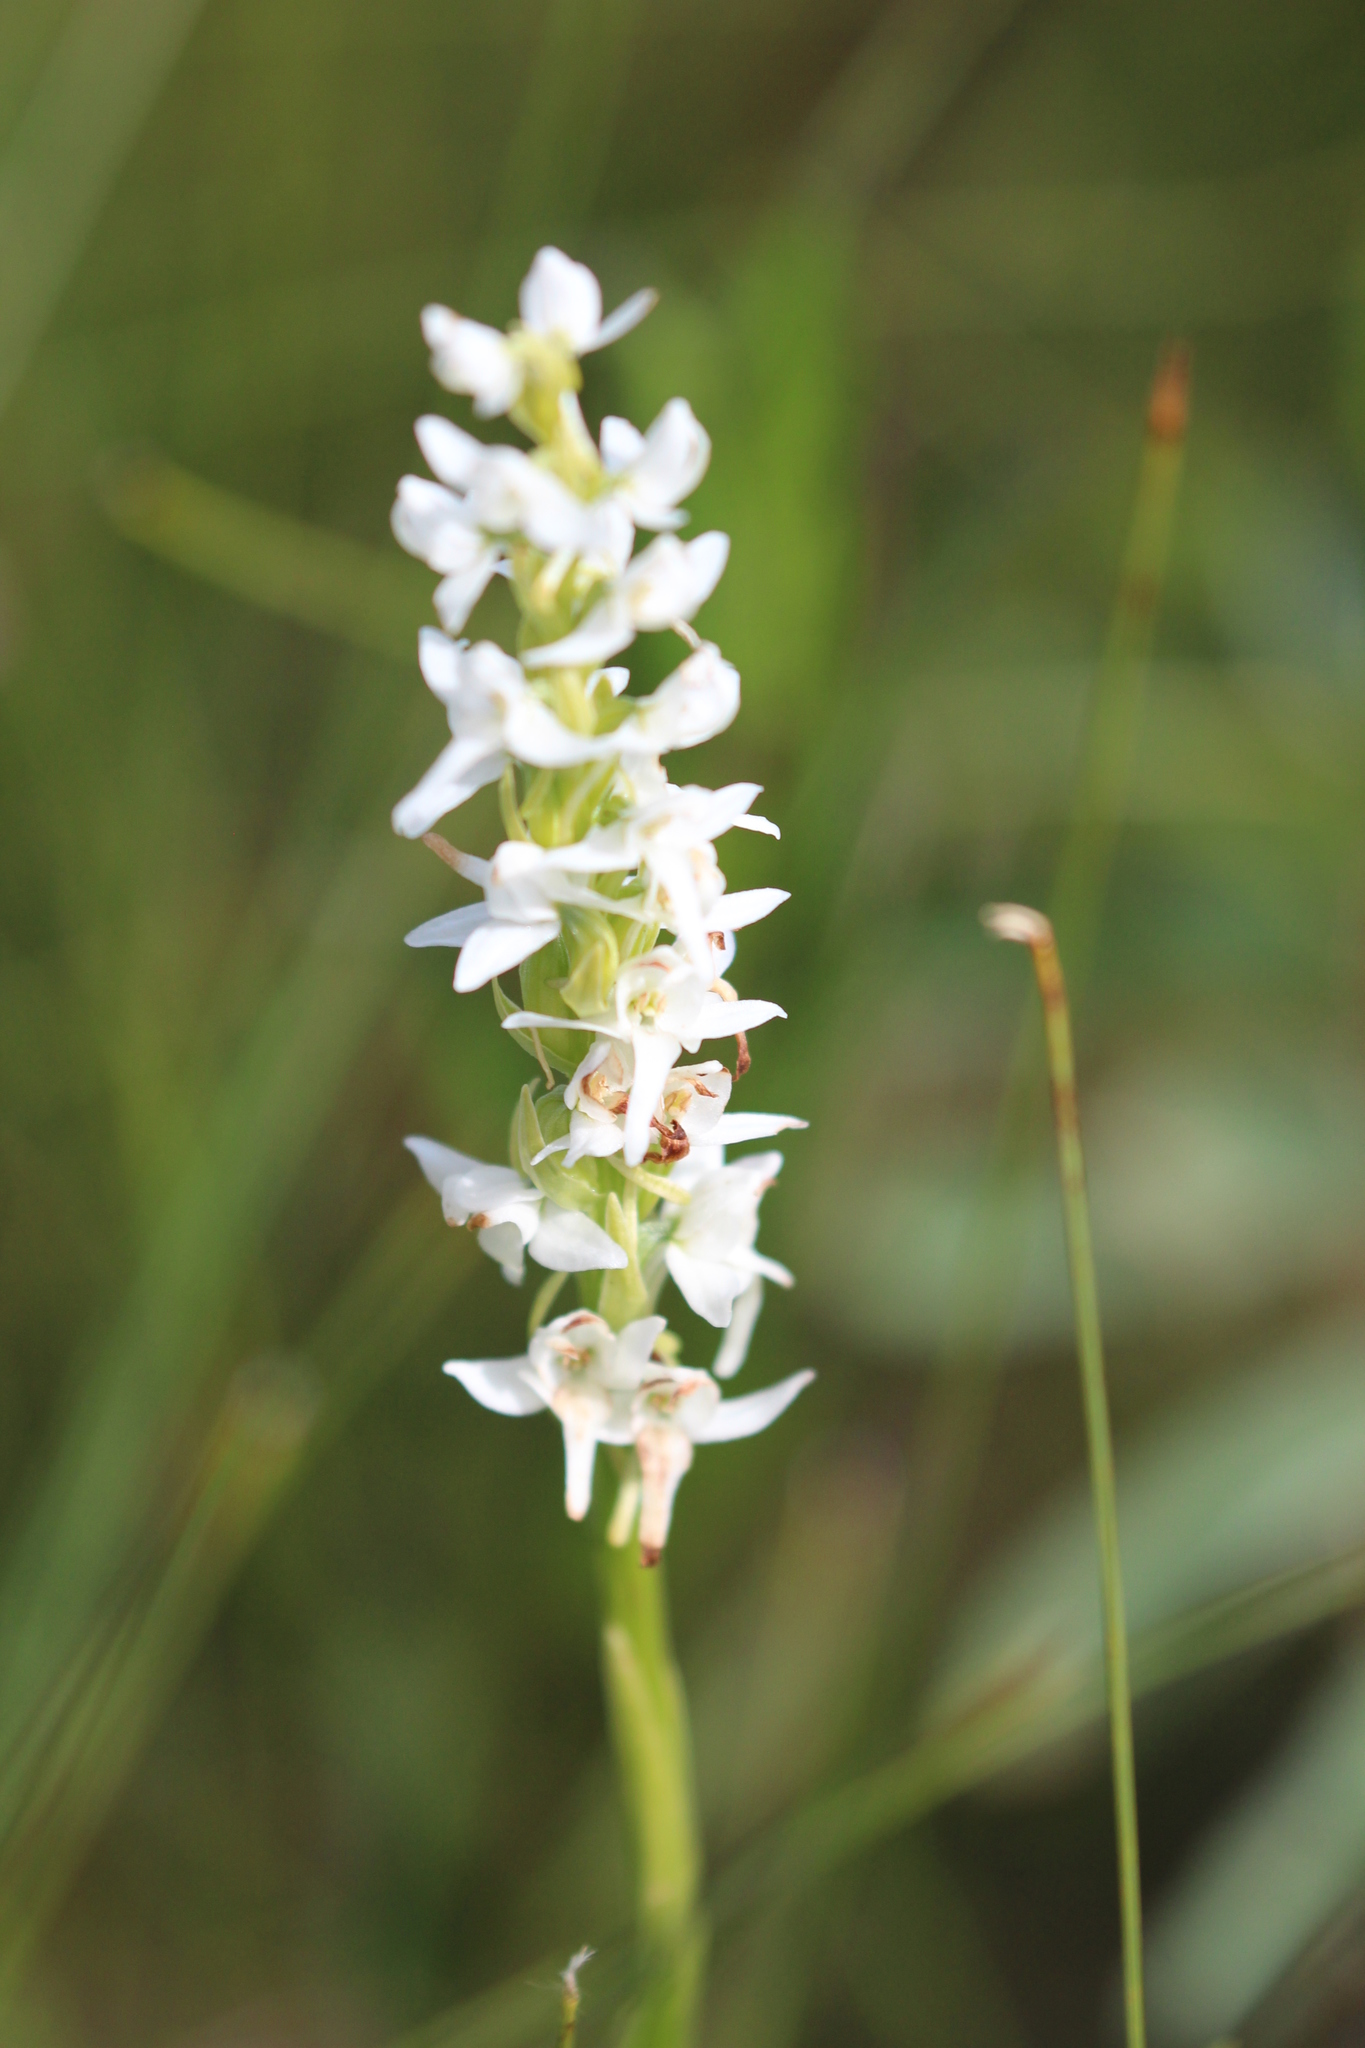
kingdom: Plantae
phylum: Tracheophyta
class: Liliopsida
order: Asparagales
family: Orchidaceae
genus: Platanthera
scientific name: Platanthera dilatata
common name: Bog candles
